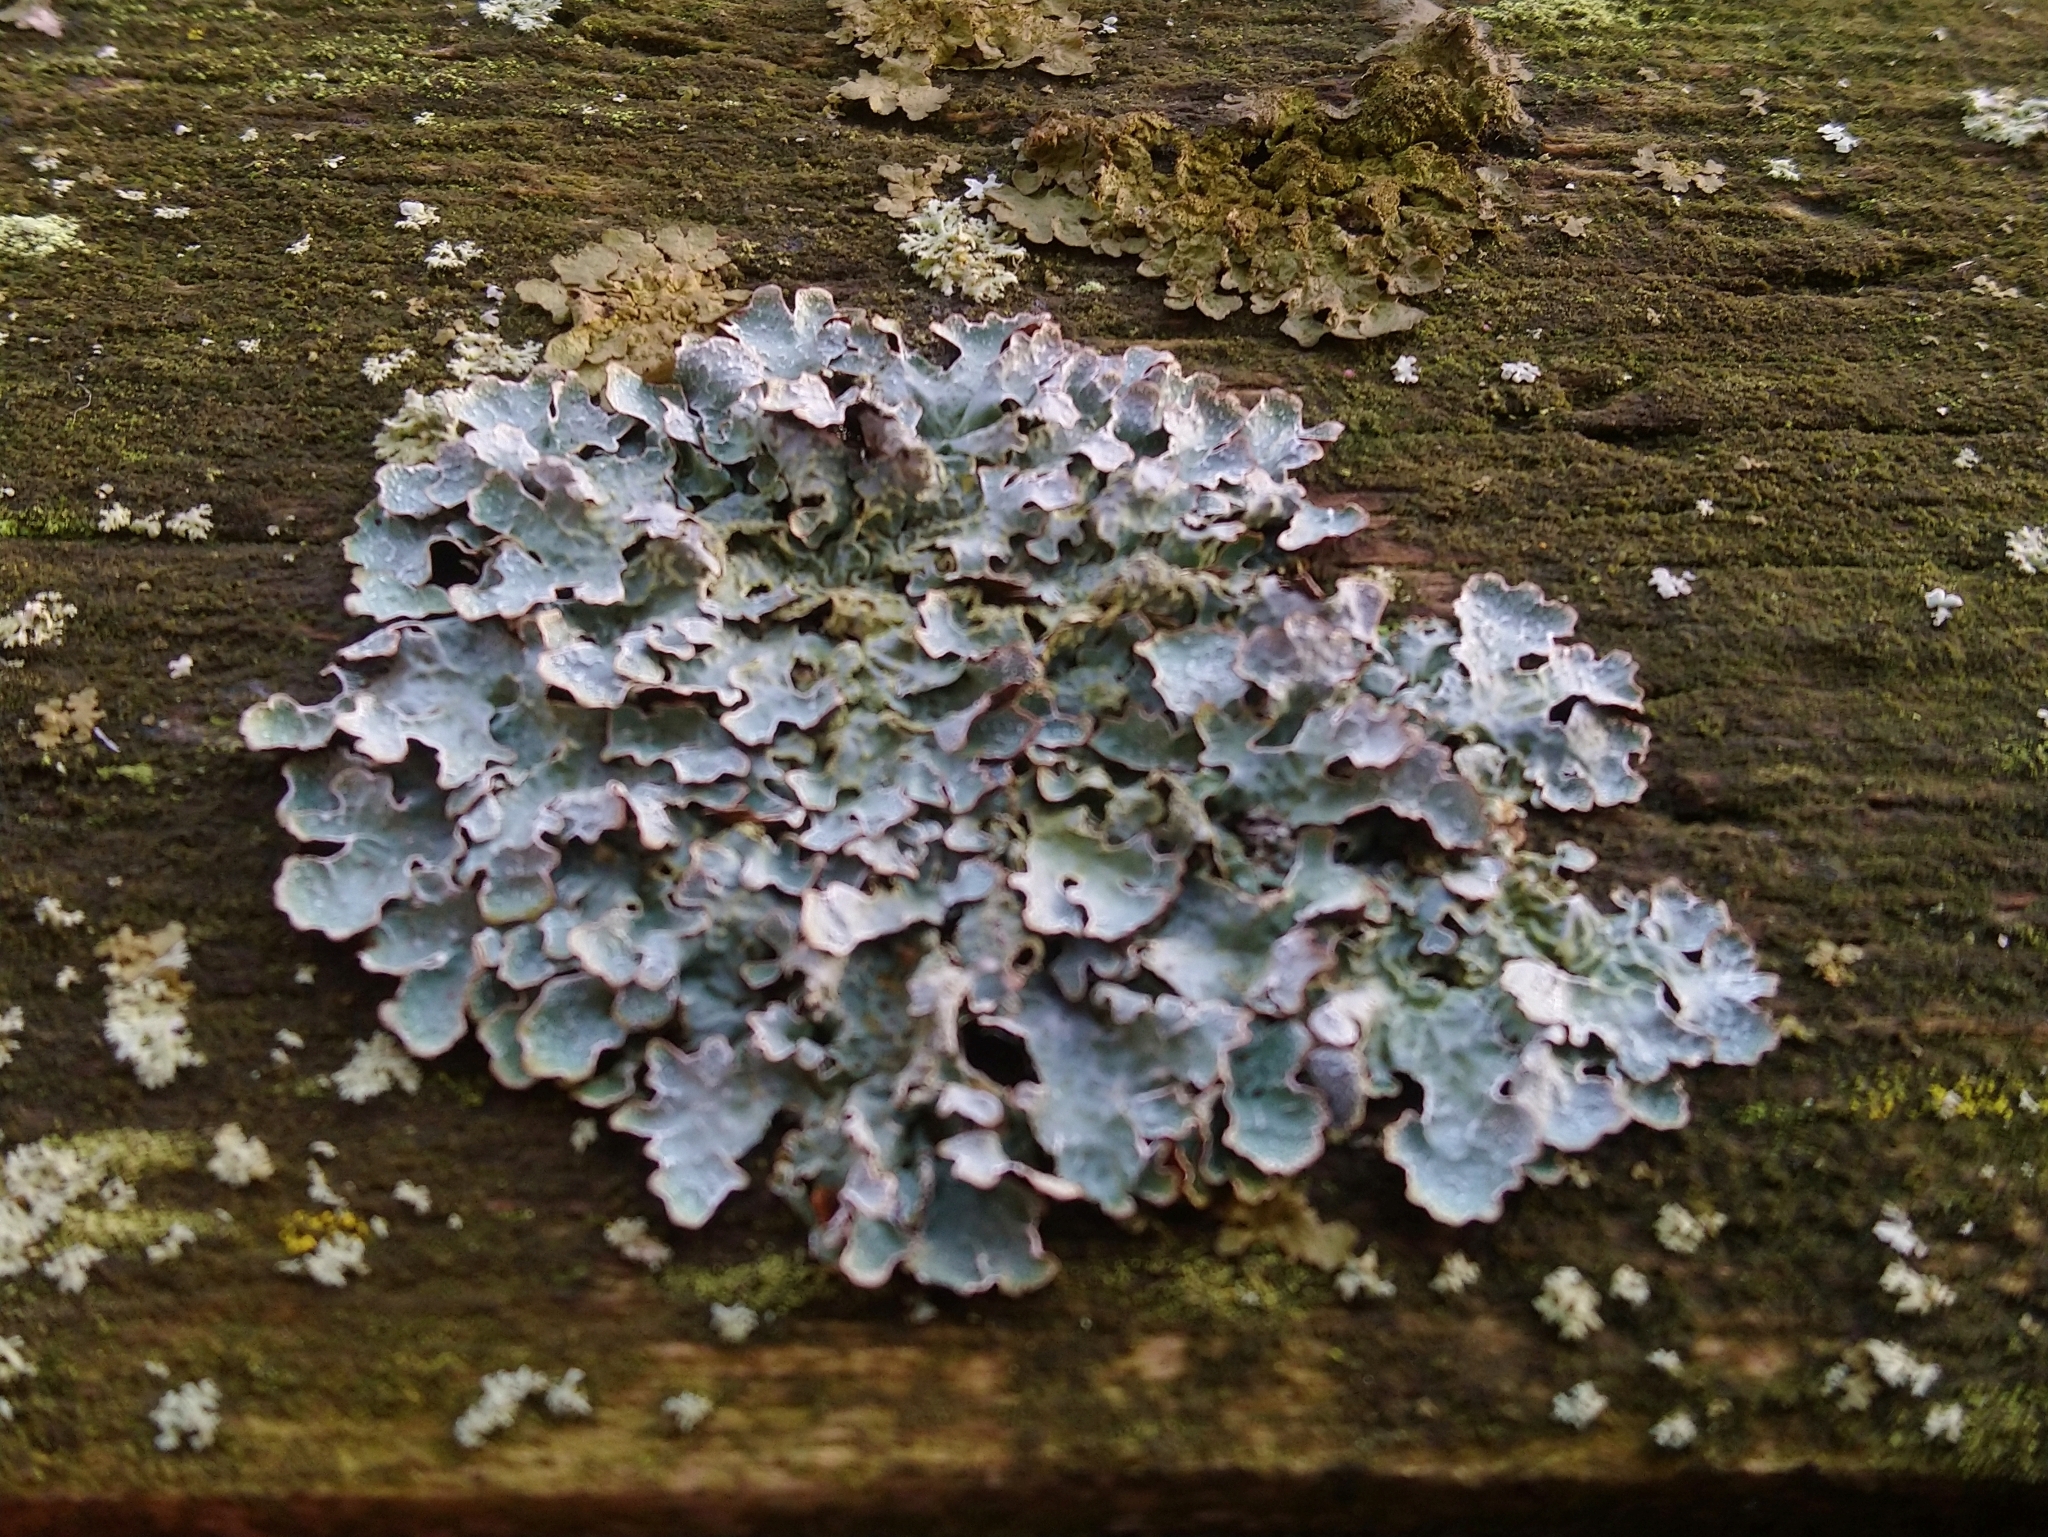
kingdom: Fungi
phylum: Ascomycota
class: Lecanoromycetes
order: Lecanorales
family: Parmeliaceae
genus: Parmelia
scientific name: Parmelia sulcata
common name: Netted shield lichen
